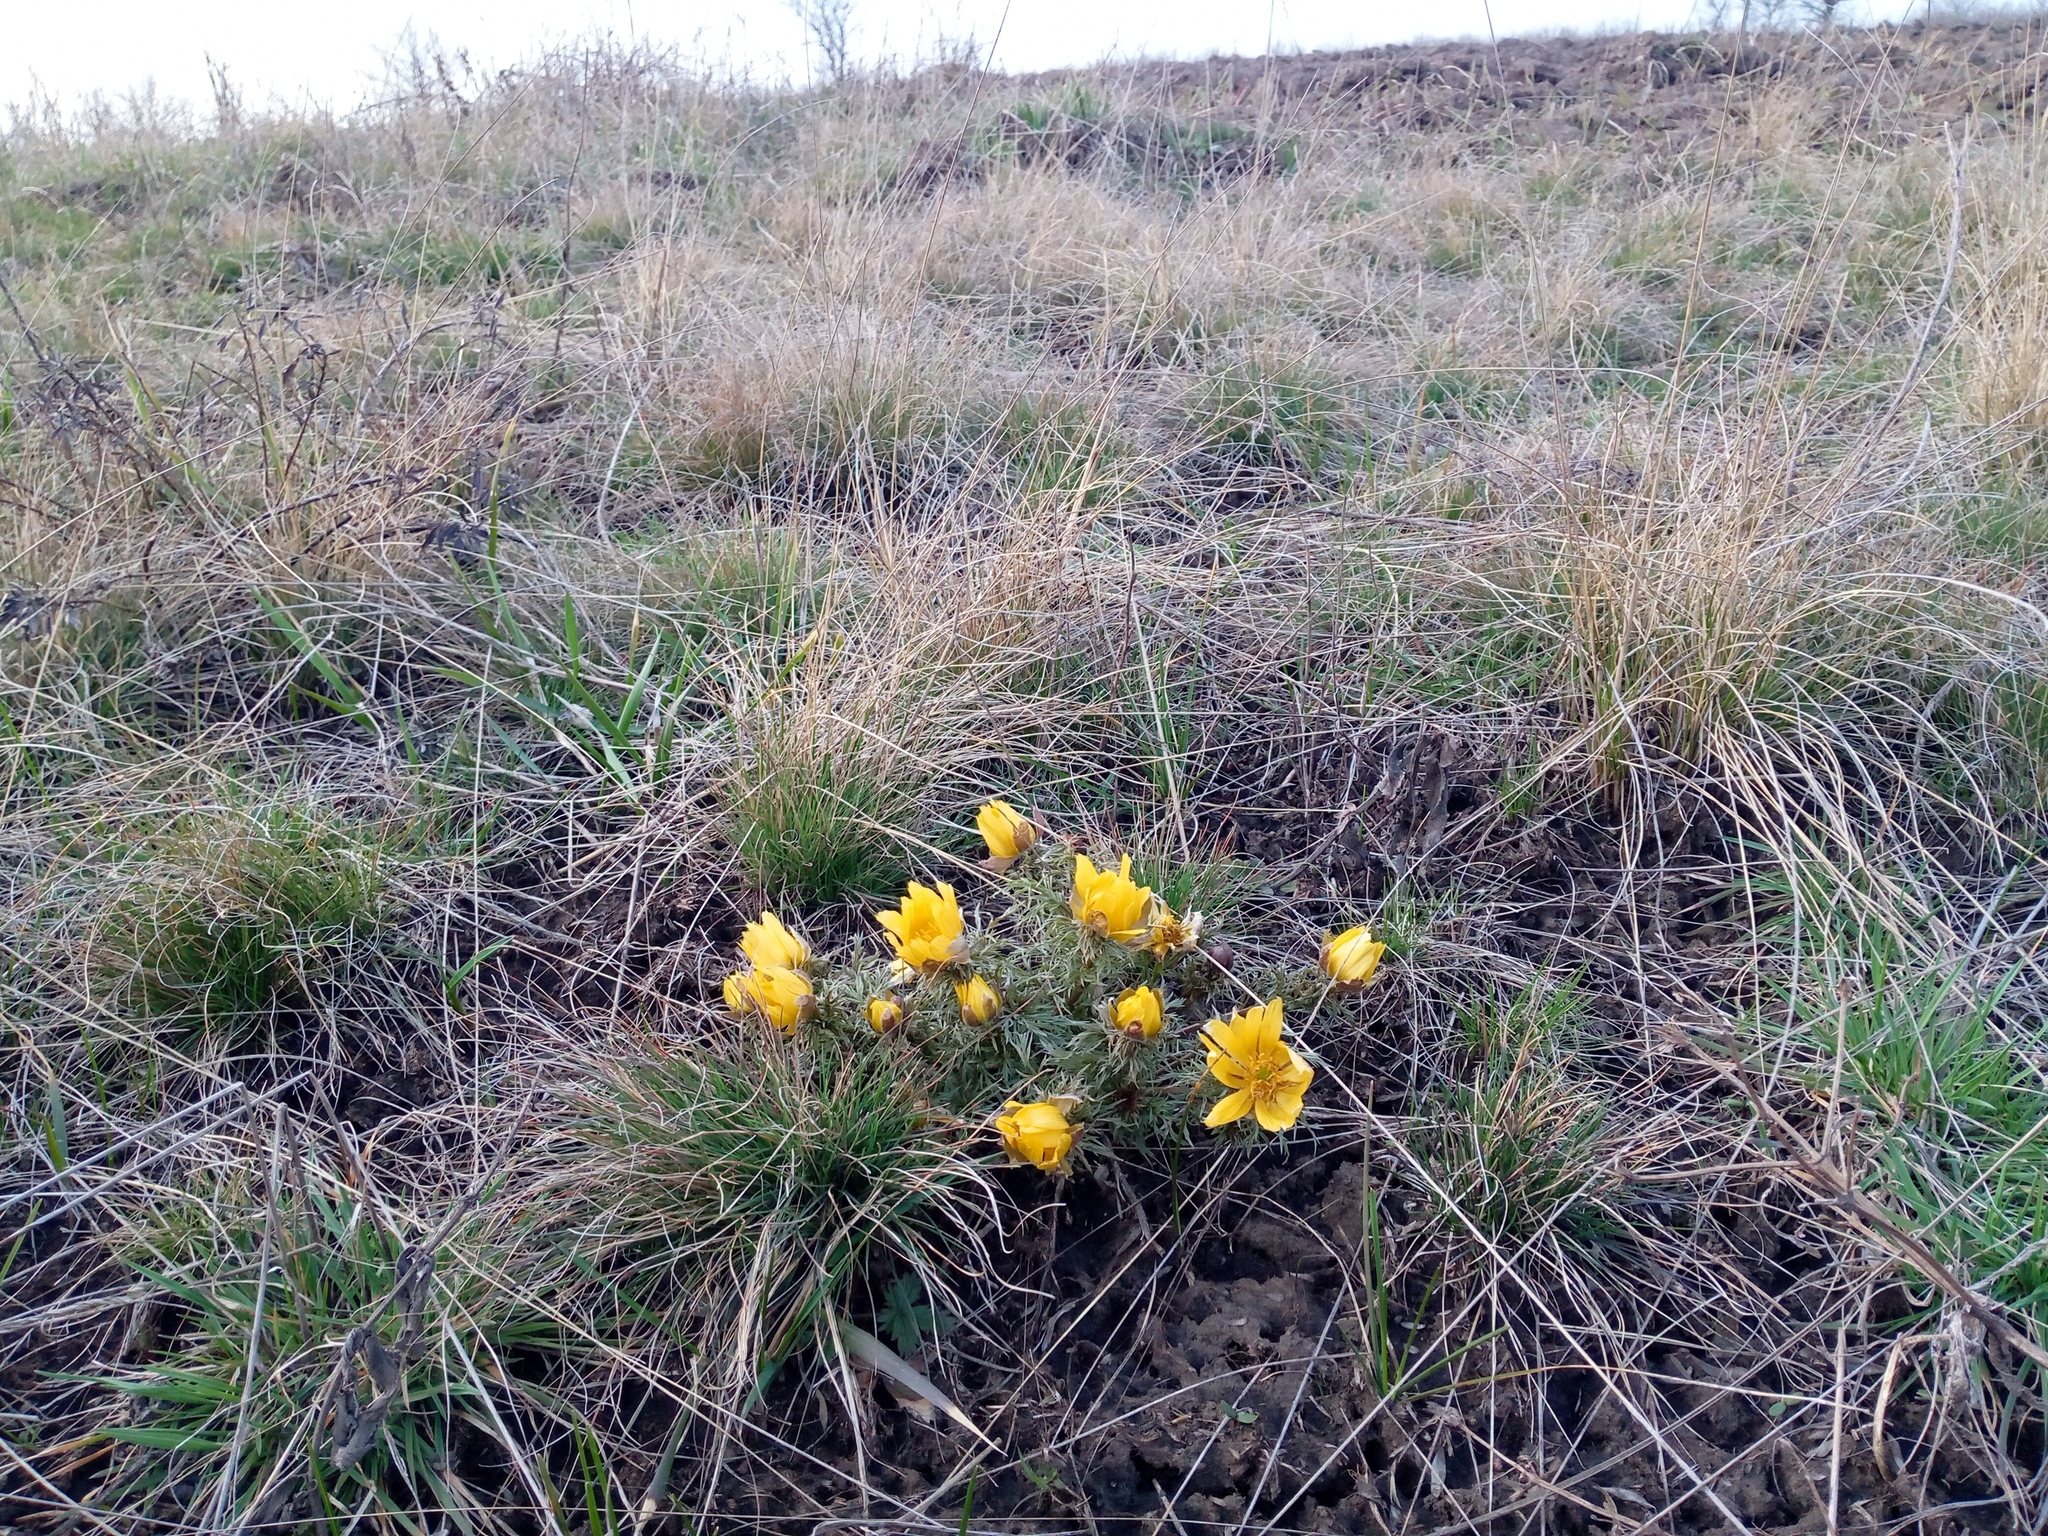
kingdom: Plantae
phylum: Tracheophyta
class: Magnoliopsida
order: Ranunculales
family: Ranunculaceae
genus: Adonis
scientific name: Adonis volgensis
